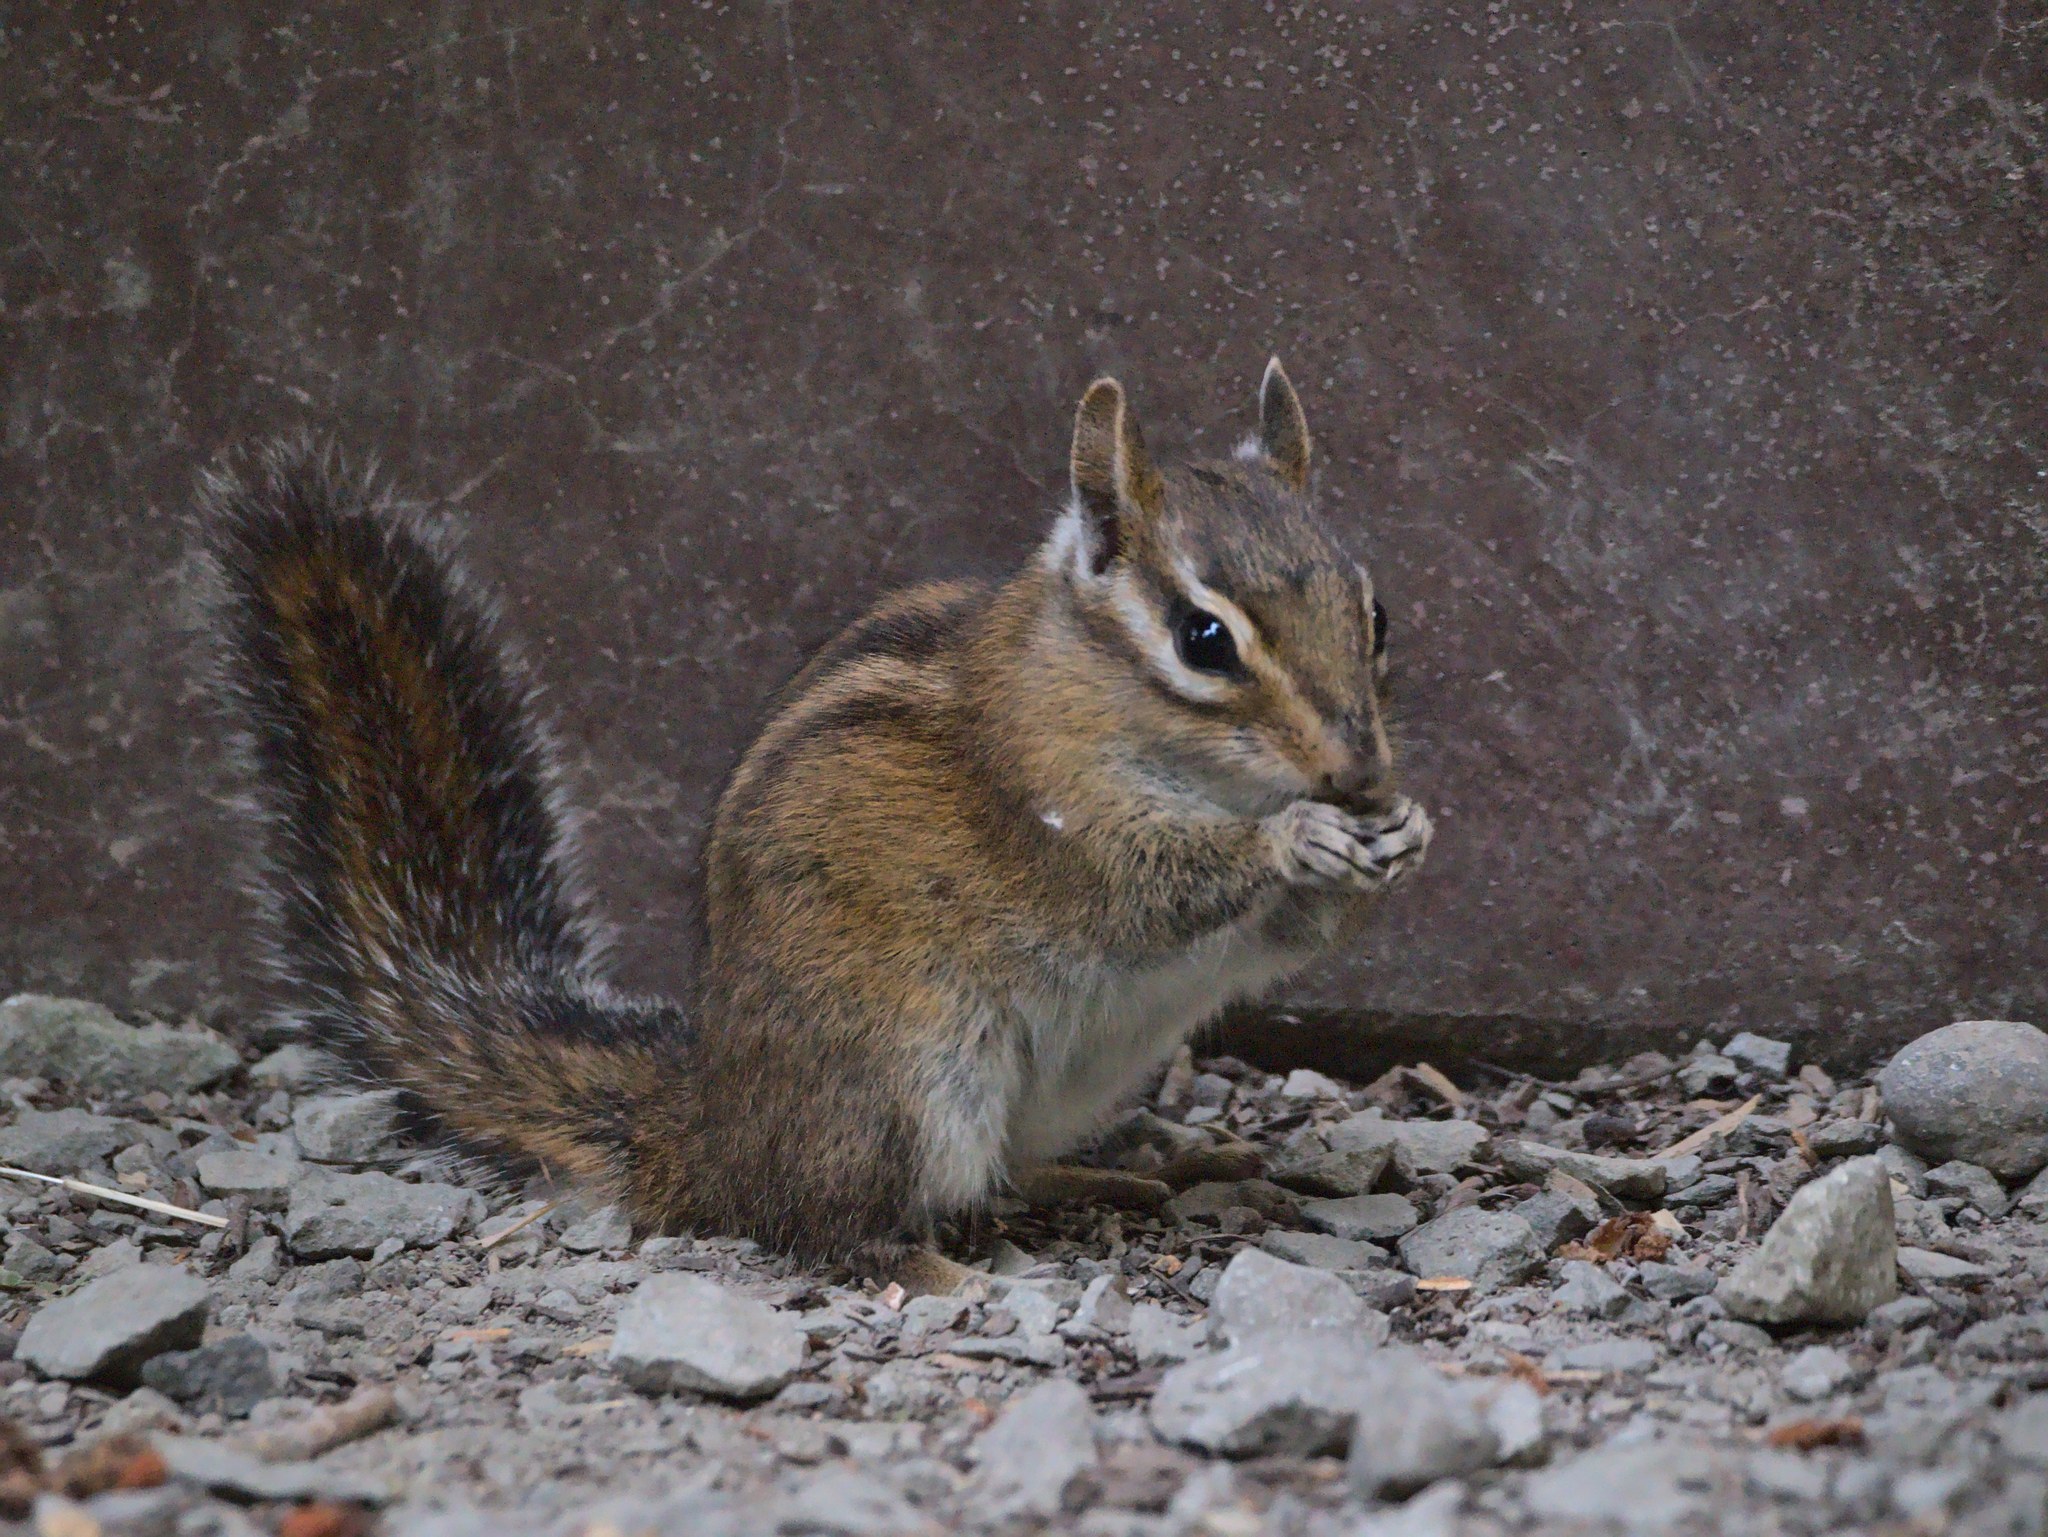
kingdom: Animalia
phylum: Chordata
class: Mammalia
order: Rodentia
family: Sciuridae
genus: Tamias
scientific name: Tamias townsendii
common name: Townsend's chipmunk
